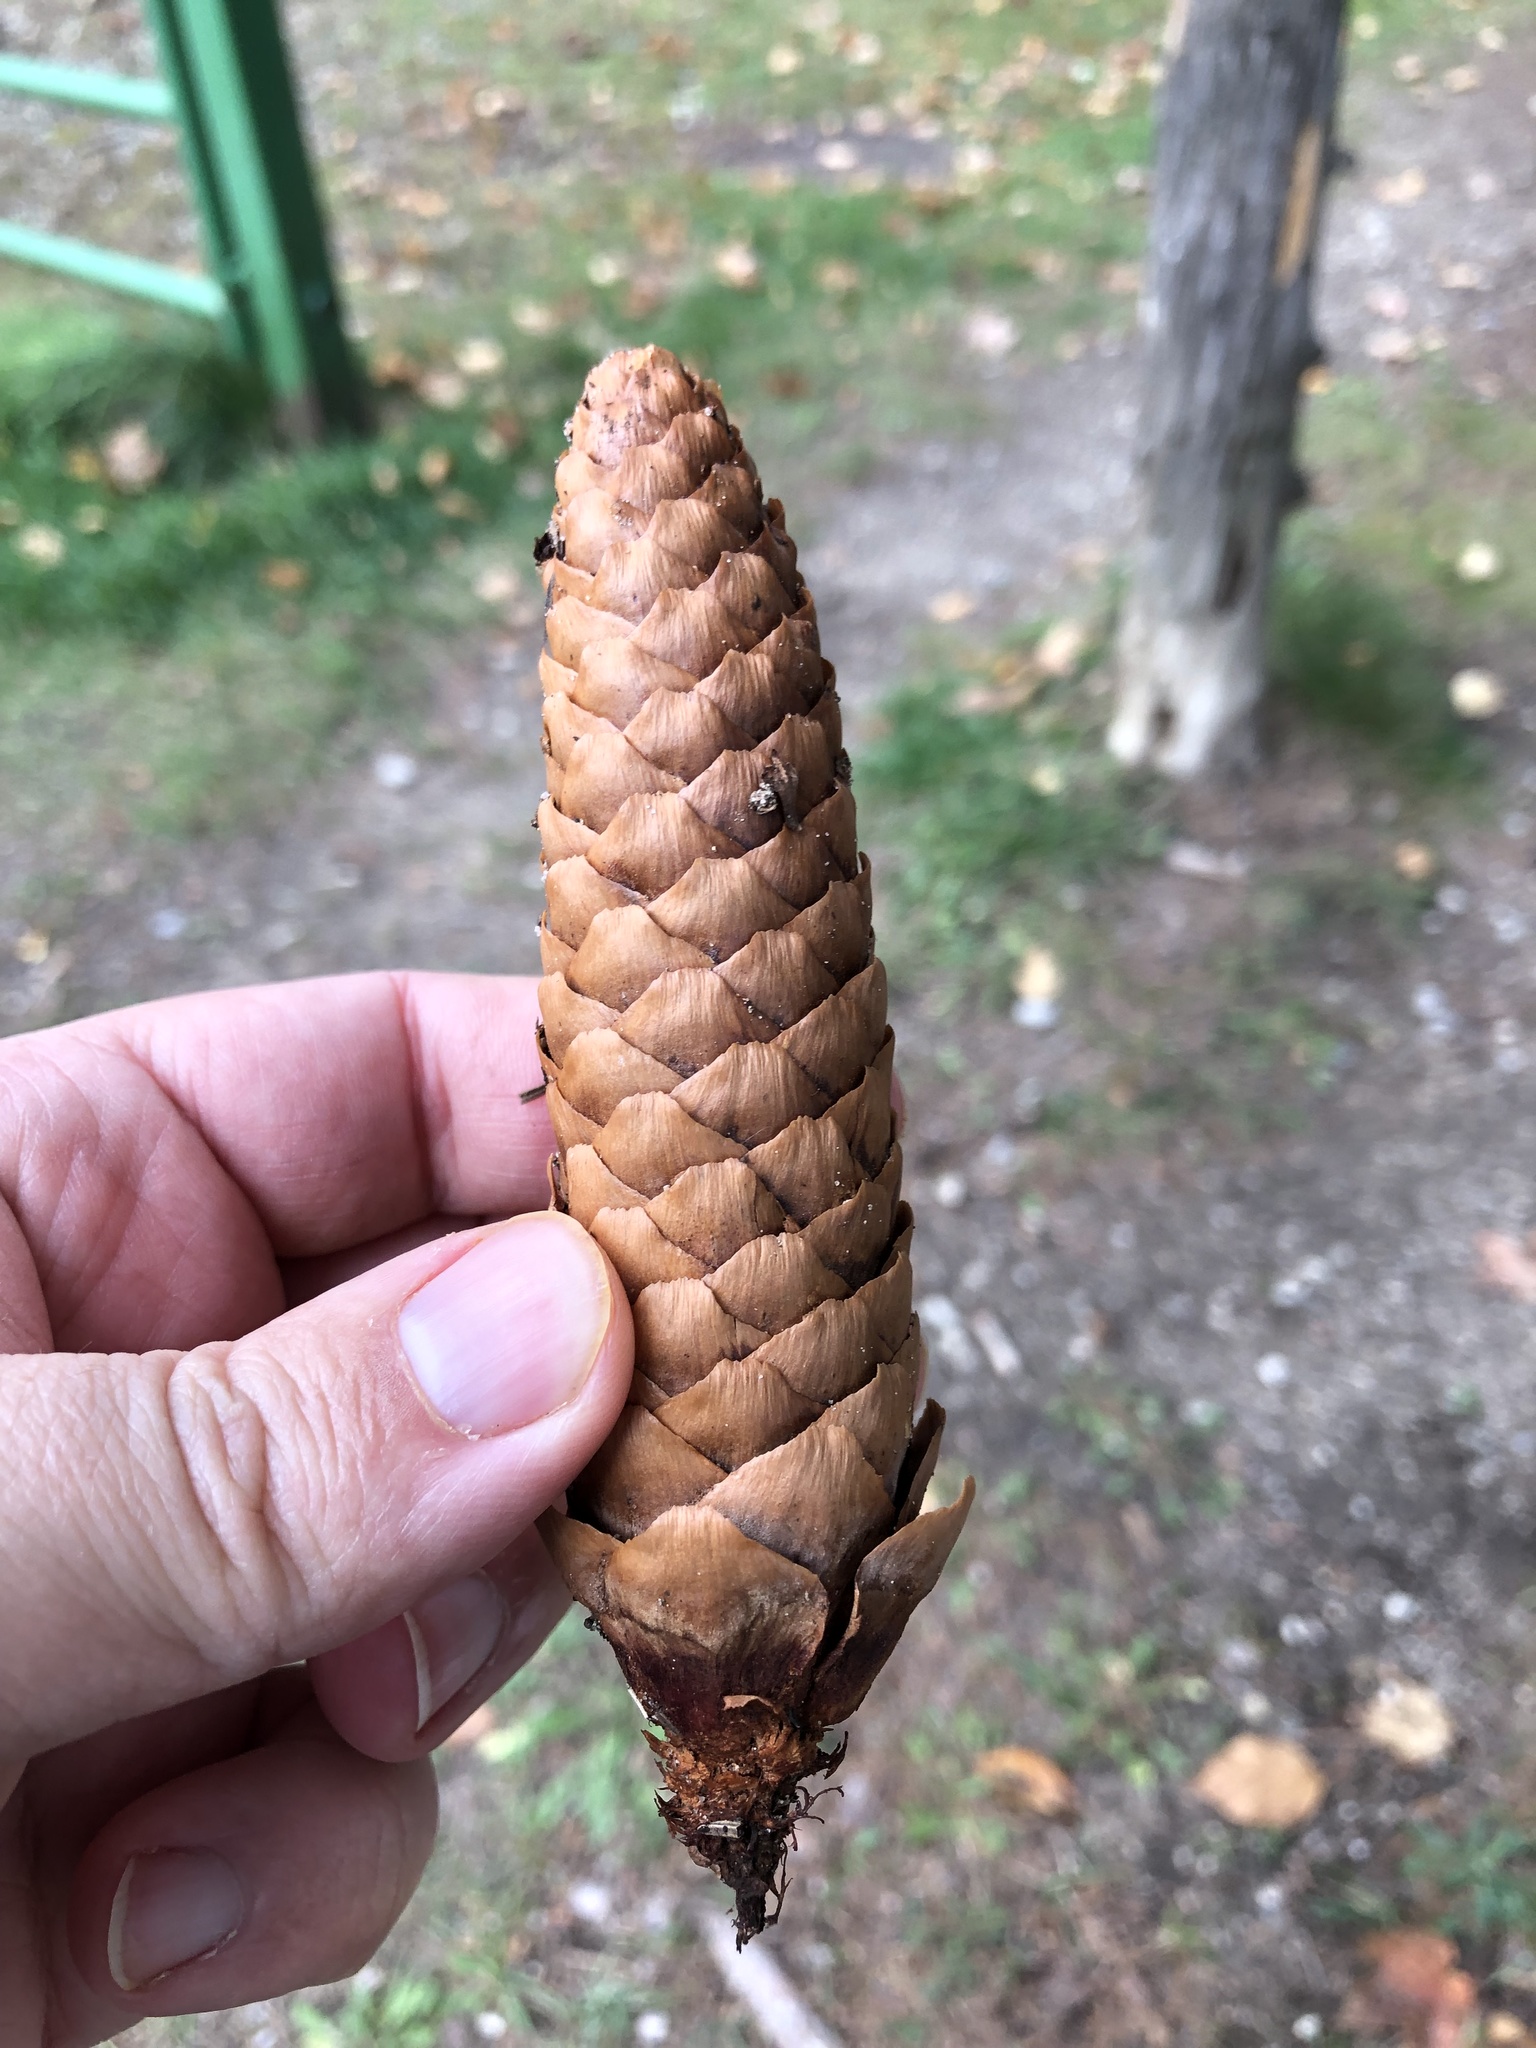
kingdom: Plantae
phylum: Tracheophyta
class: Pinopsida
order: Pinales
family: Pinaceae
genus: Picea
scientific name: Picea abies
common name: Norway spruce
